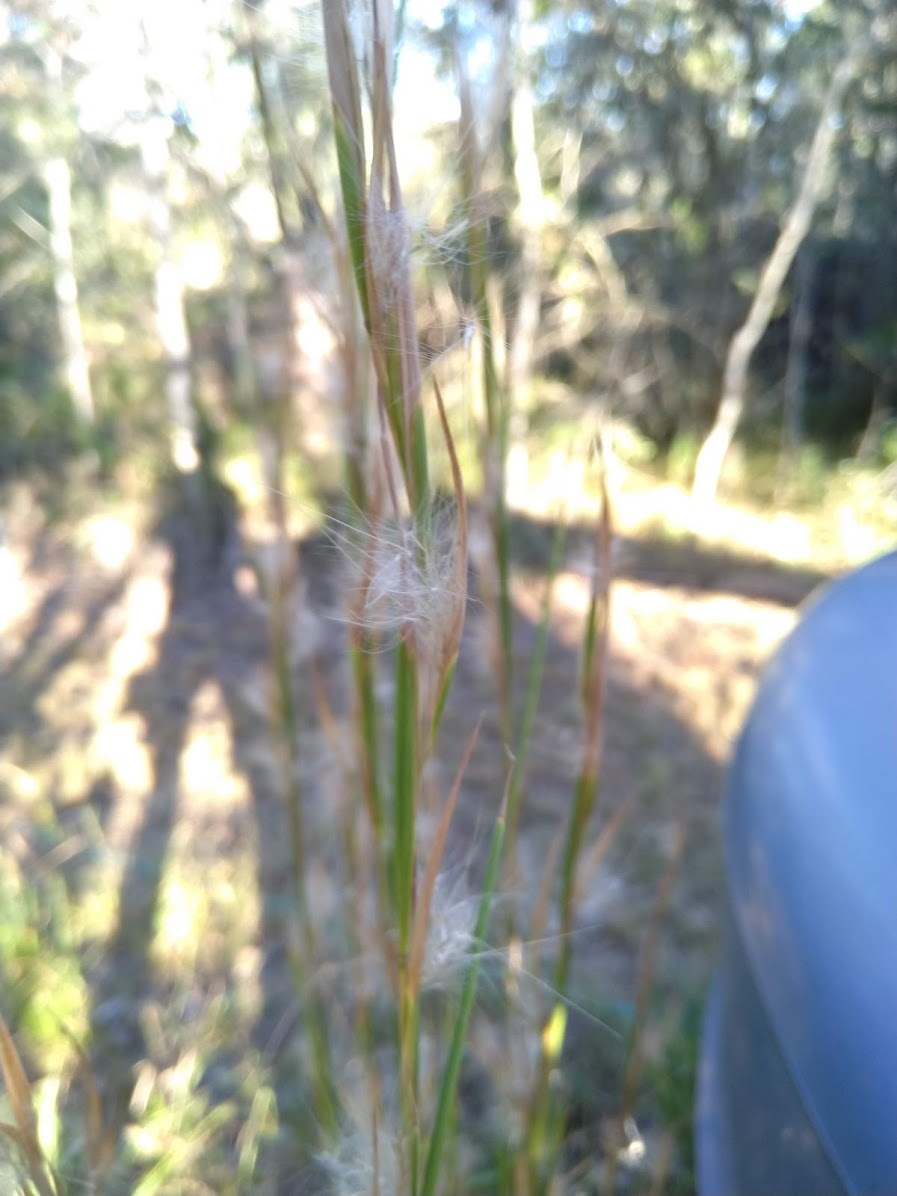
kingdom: Plantae
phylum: Tracheophyta
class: Liliopsida
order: Poales
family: Poaceae
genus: Andropogon
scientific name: Andropogon virginicus
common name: Broomsedge bluestem
